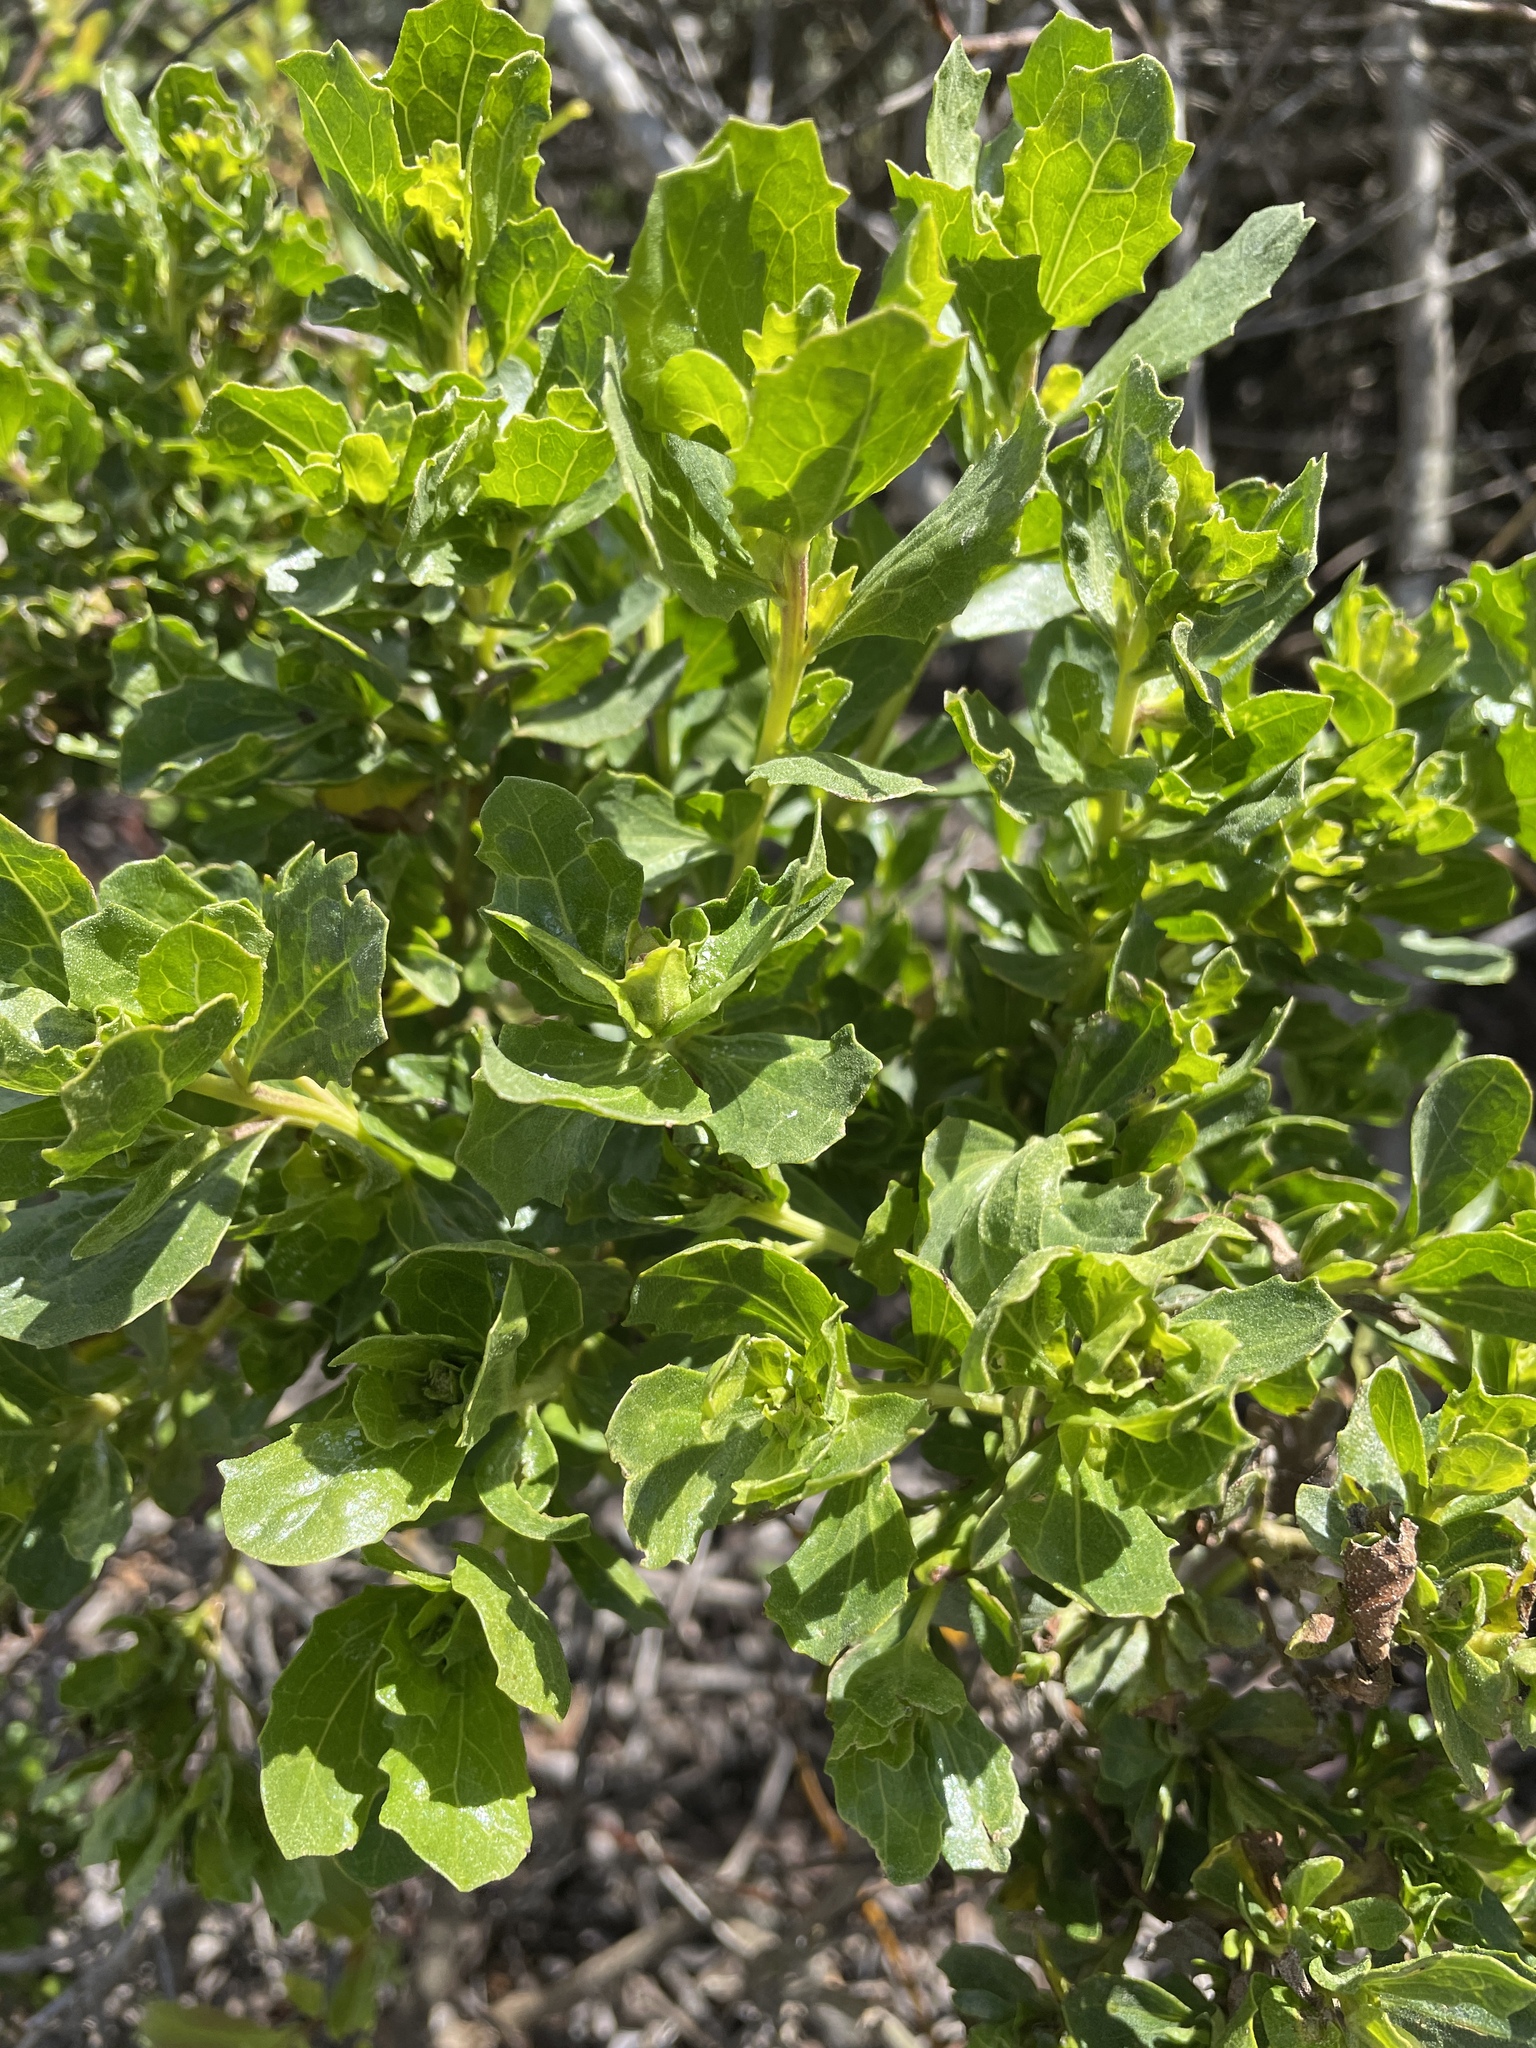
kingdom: Plantae
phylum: Tracheophyta
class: Magnoliopsida
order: Asterales
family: Asteraceae
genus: Baccharis
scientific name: Baccharis pilularis
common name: Coyotebrush
